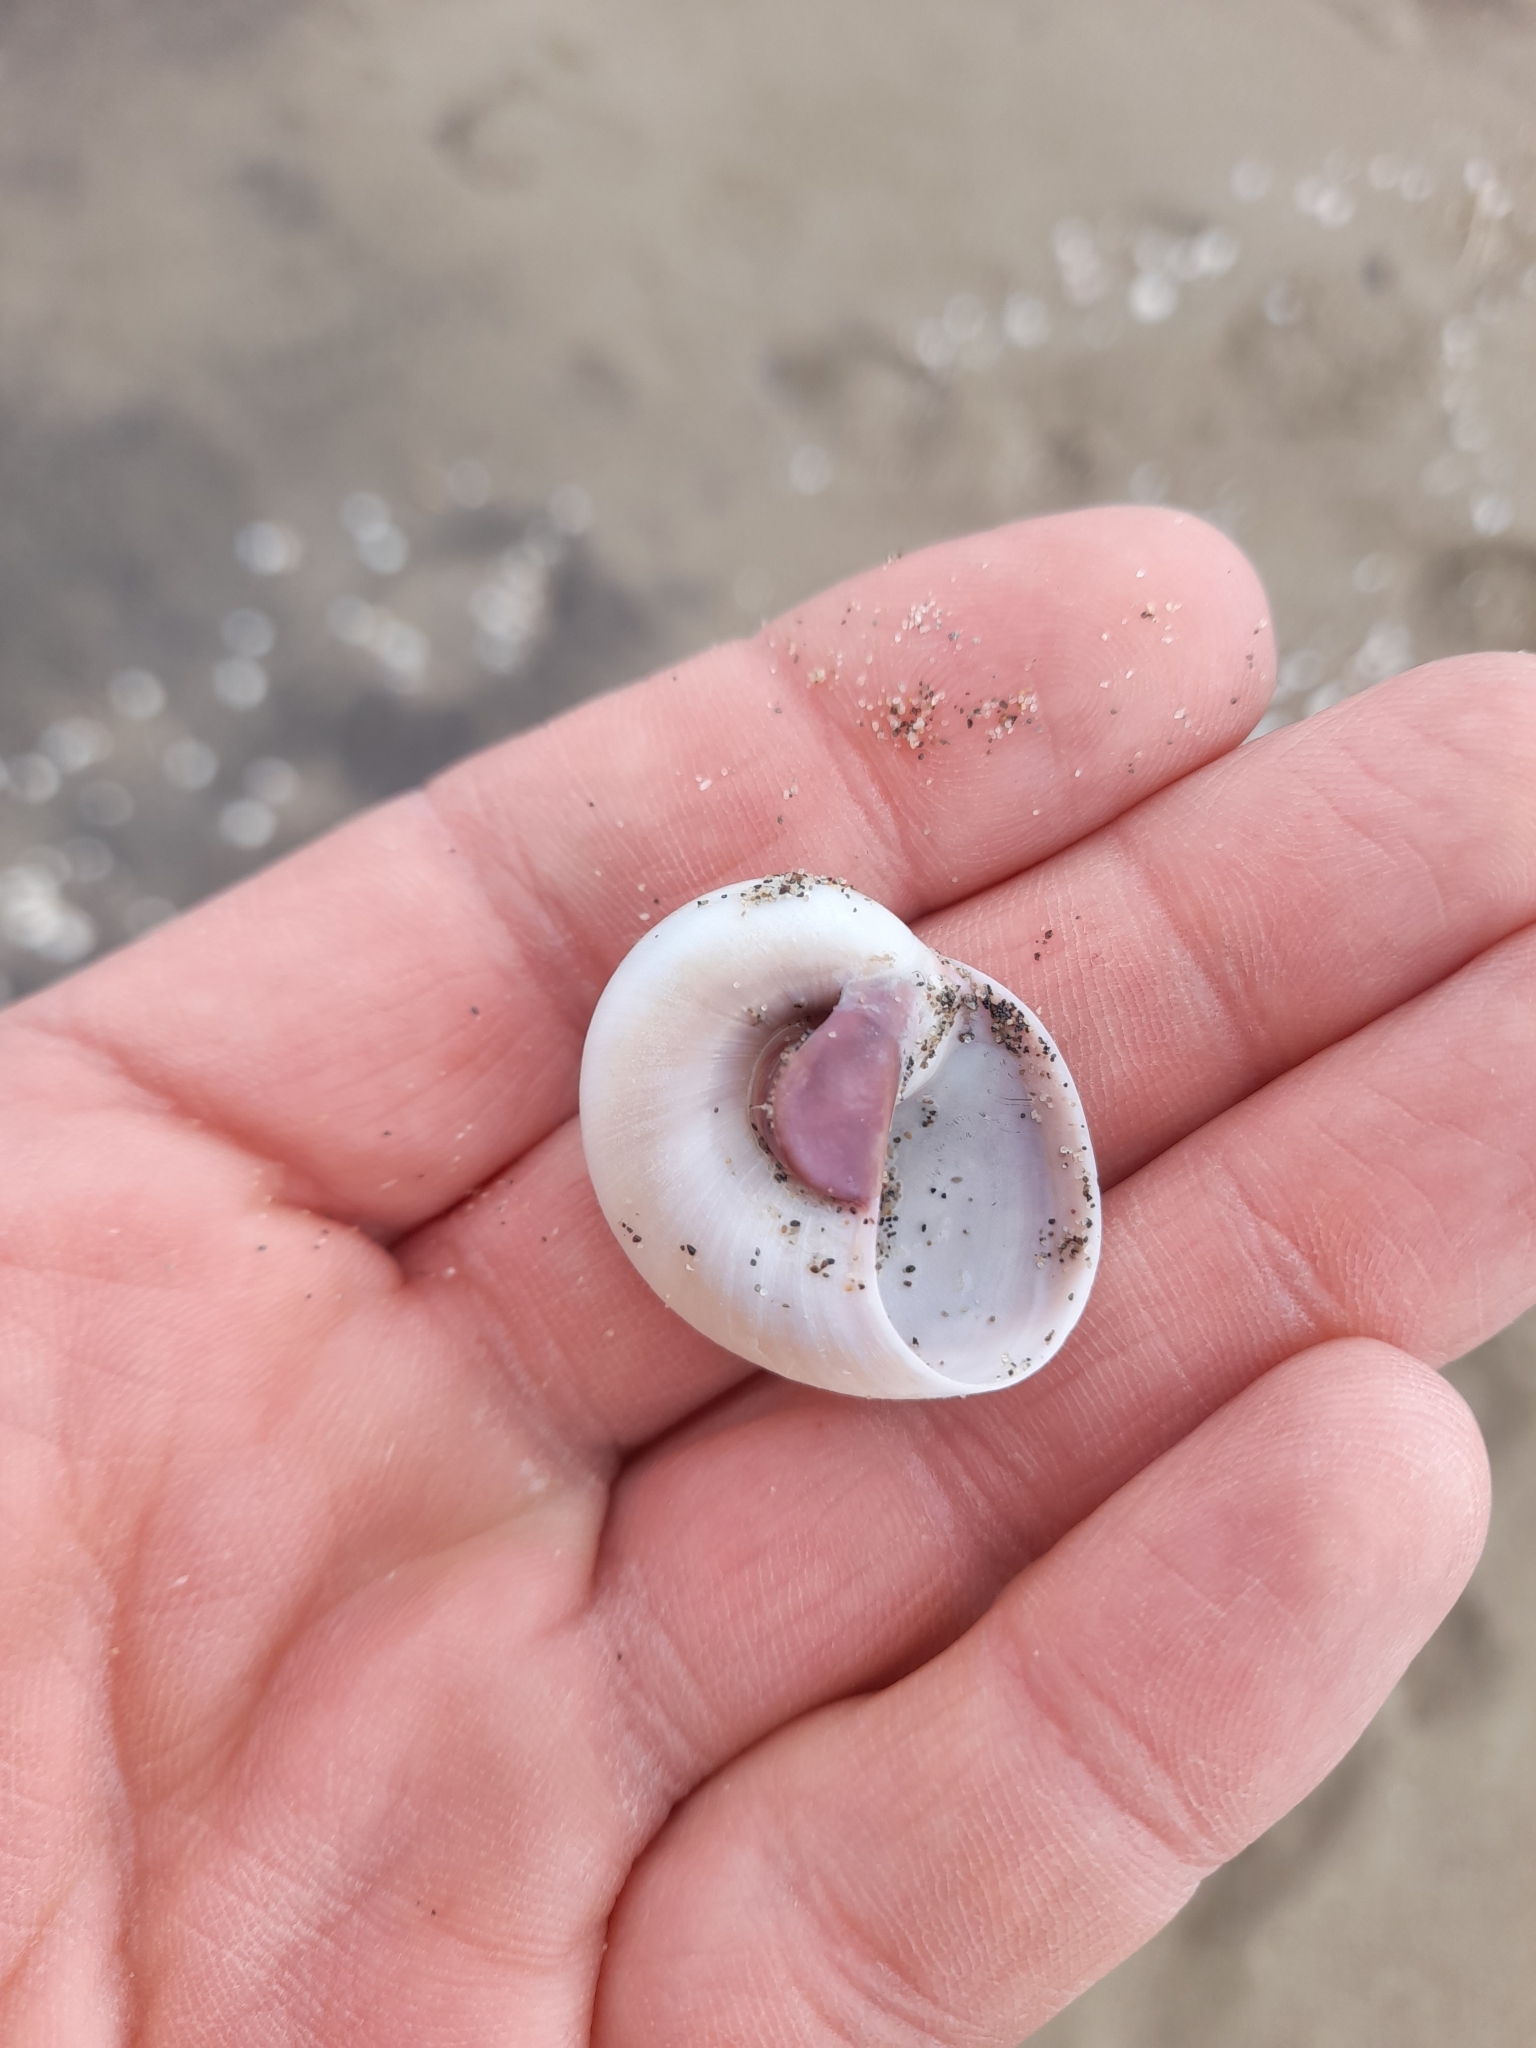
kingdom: Animalia
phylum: Mollusca
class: Gastropoda
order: Littorinimorpha
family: Naticidae
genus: Neverita
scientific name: Neverita josephinia
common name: Josephine's moonsnail
